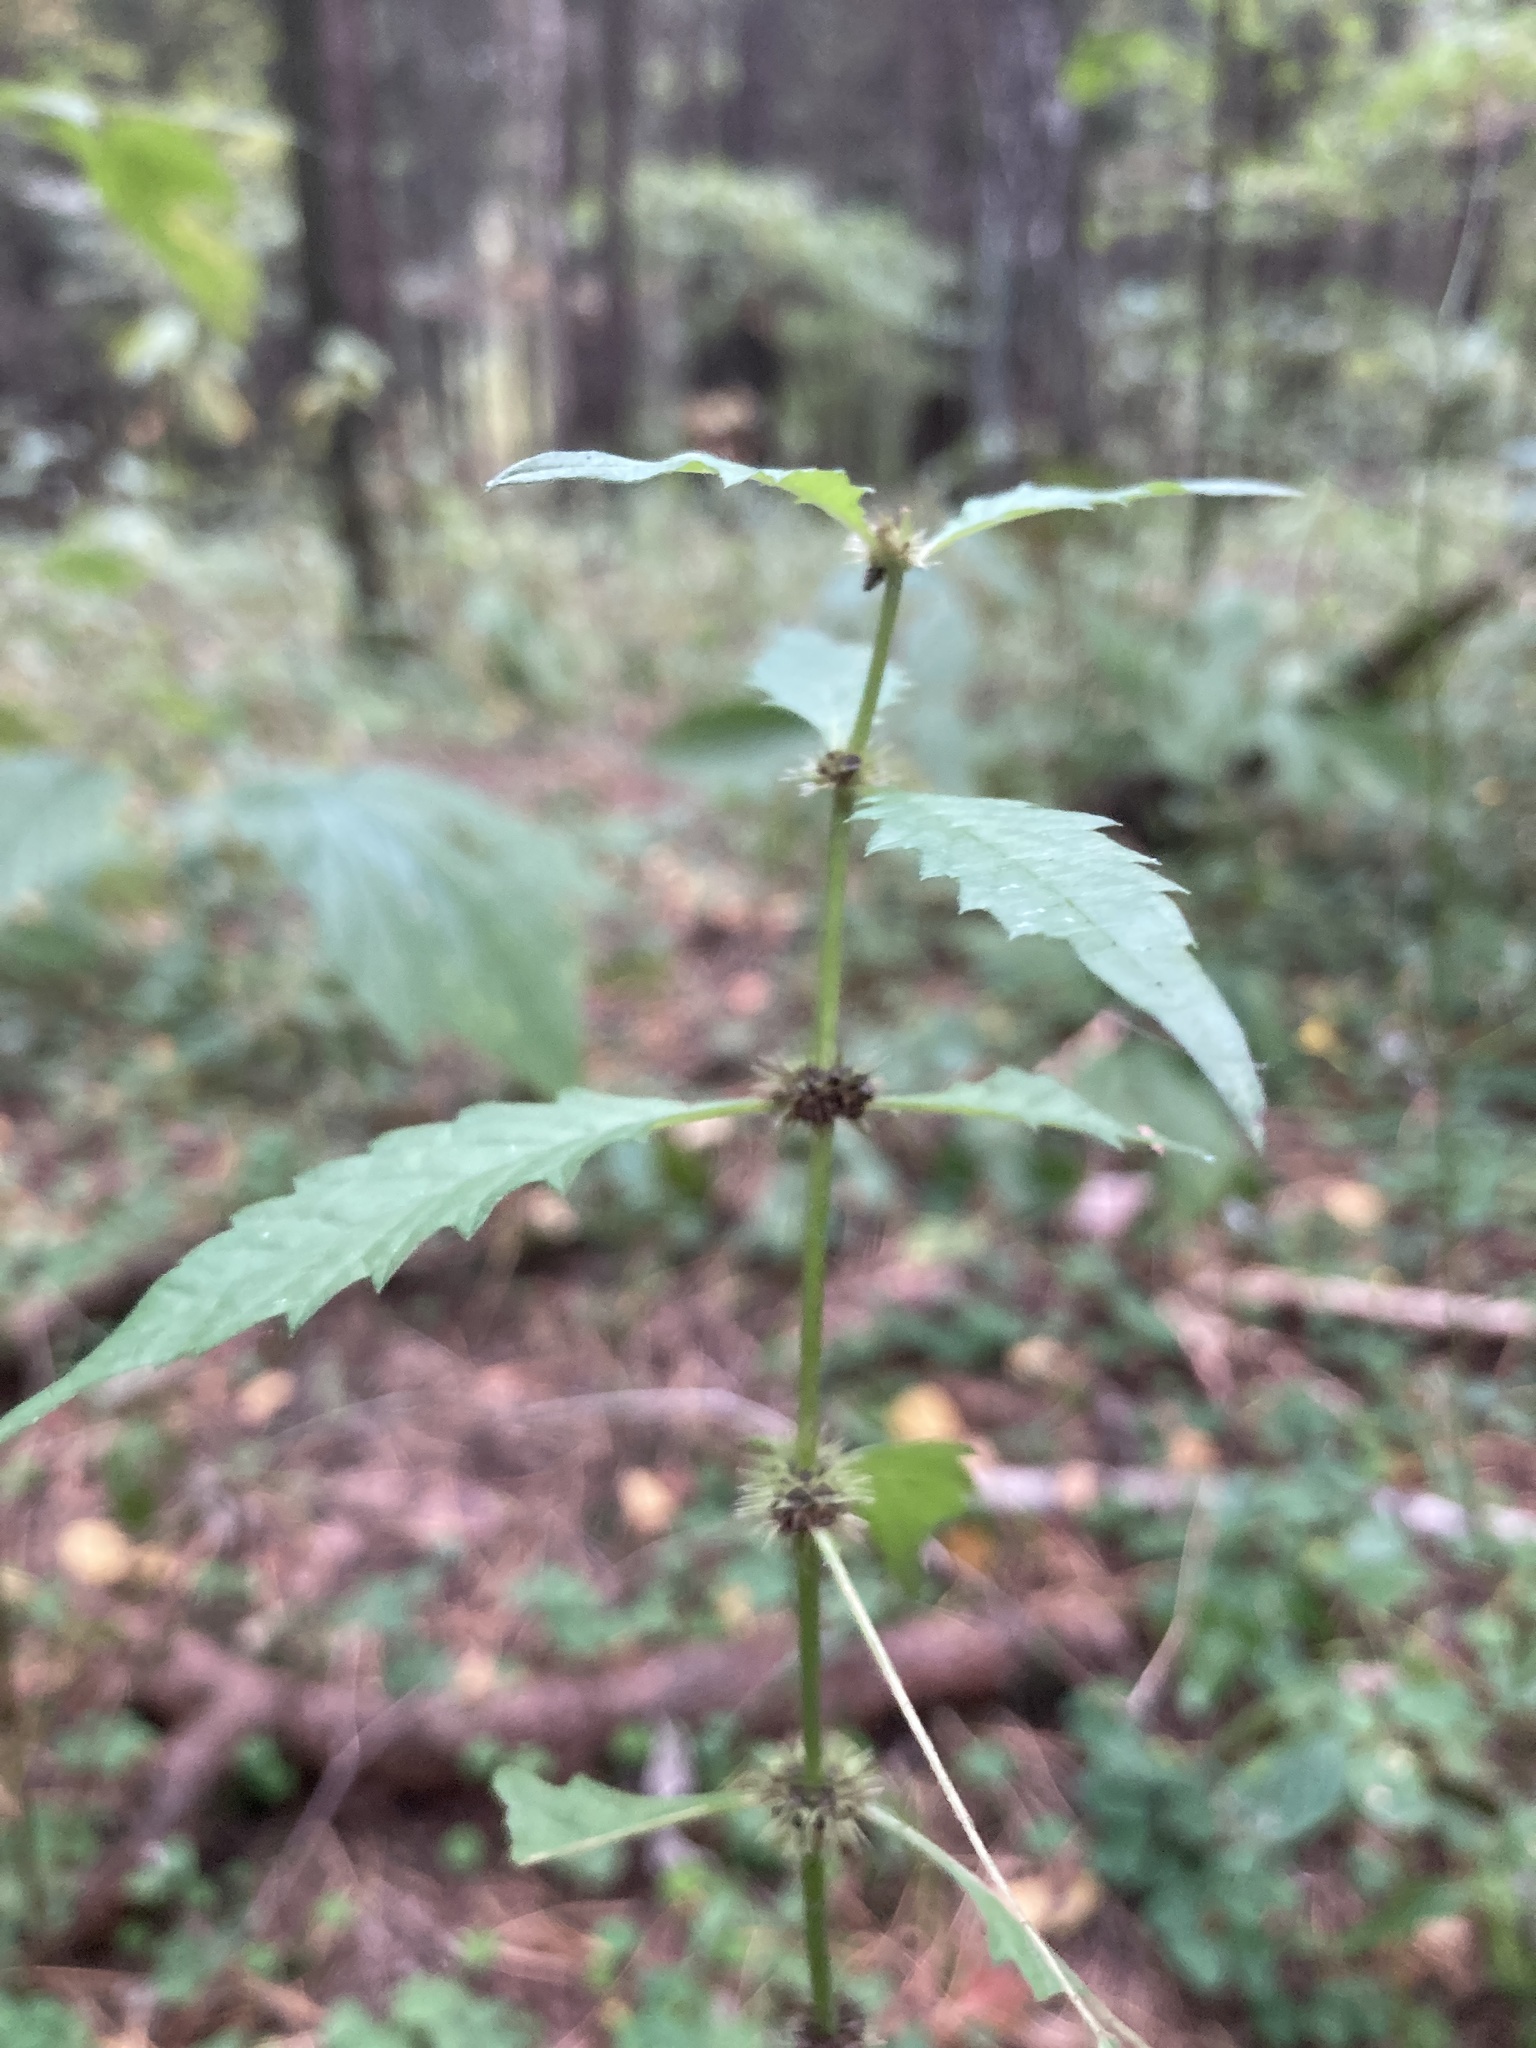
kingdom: Plantae
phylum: Tracheophyta
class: Magnoliopsida
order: Lamiales
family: Lamiaceae
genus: Lycopus
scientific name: Lycopus europaeus
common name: European bugleweed
